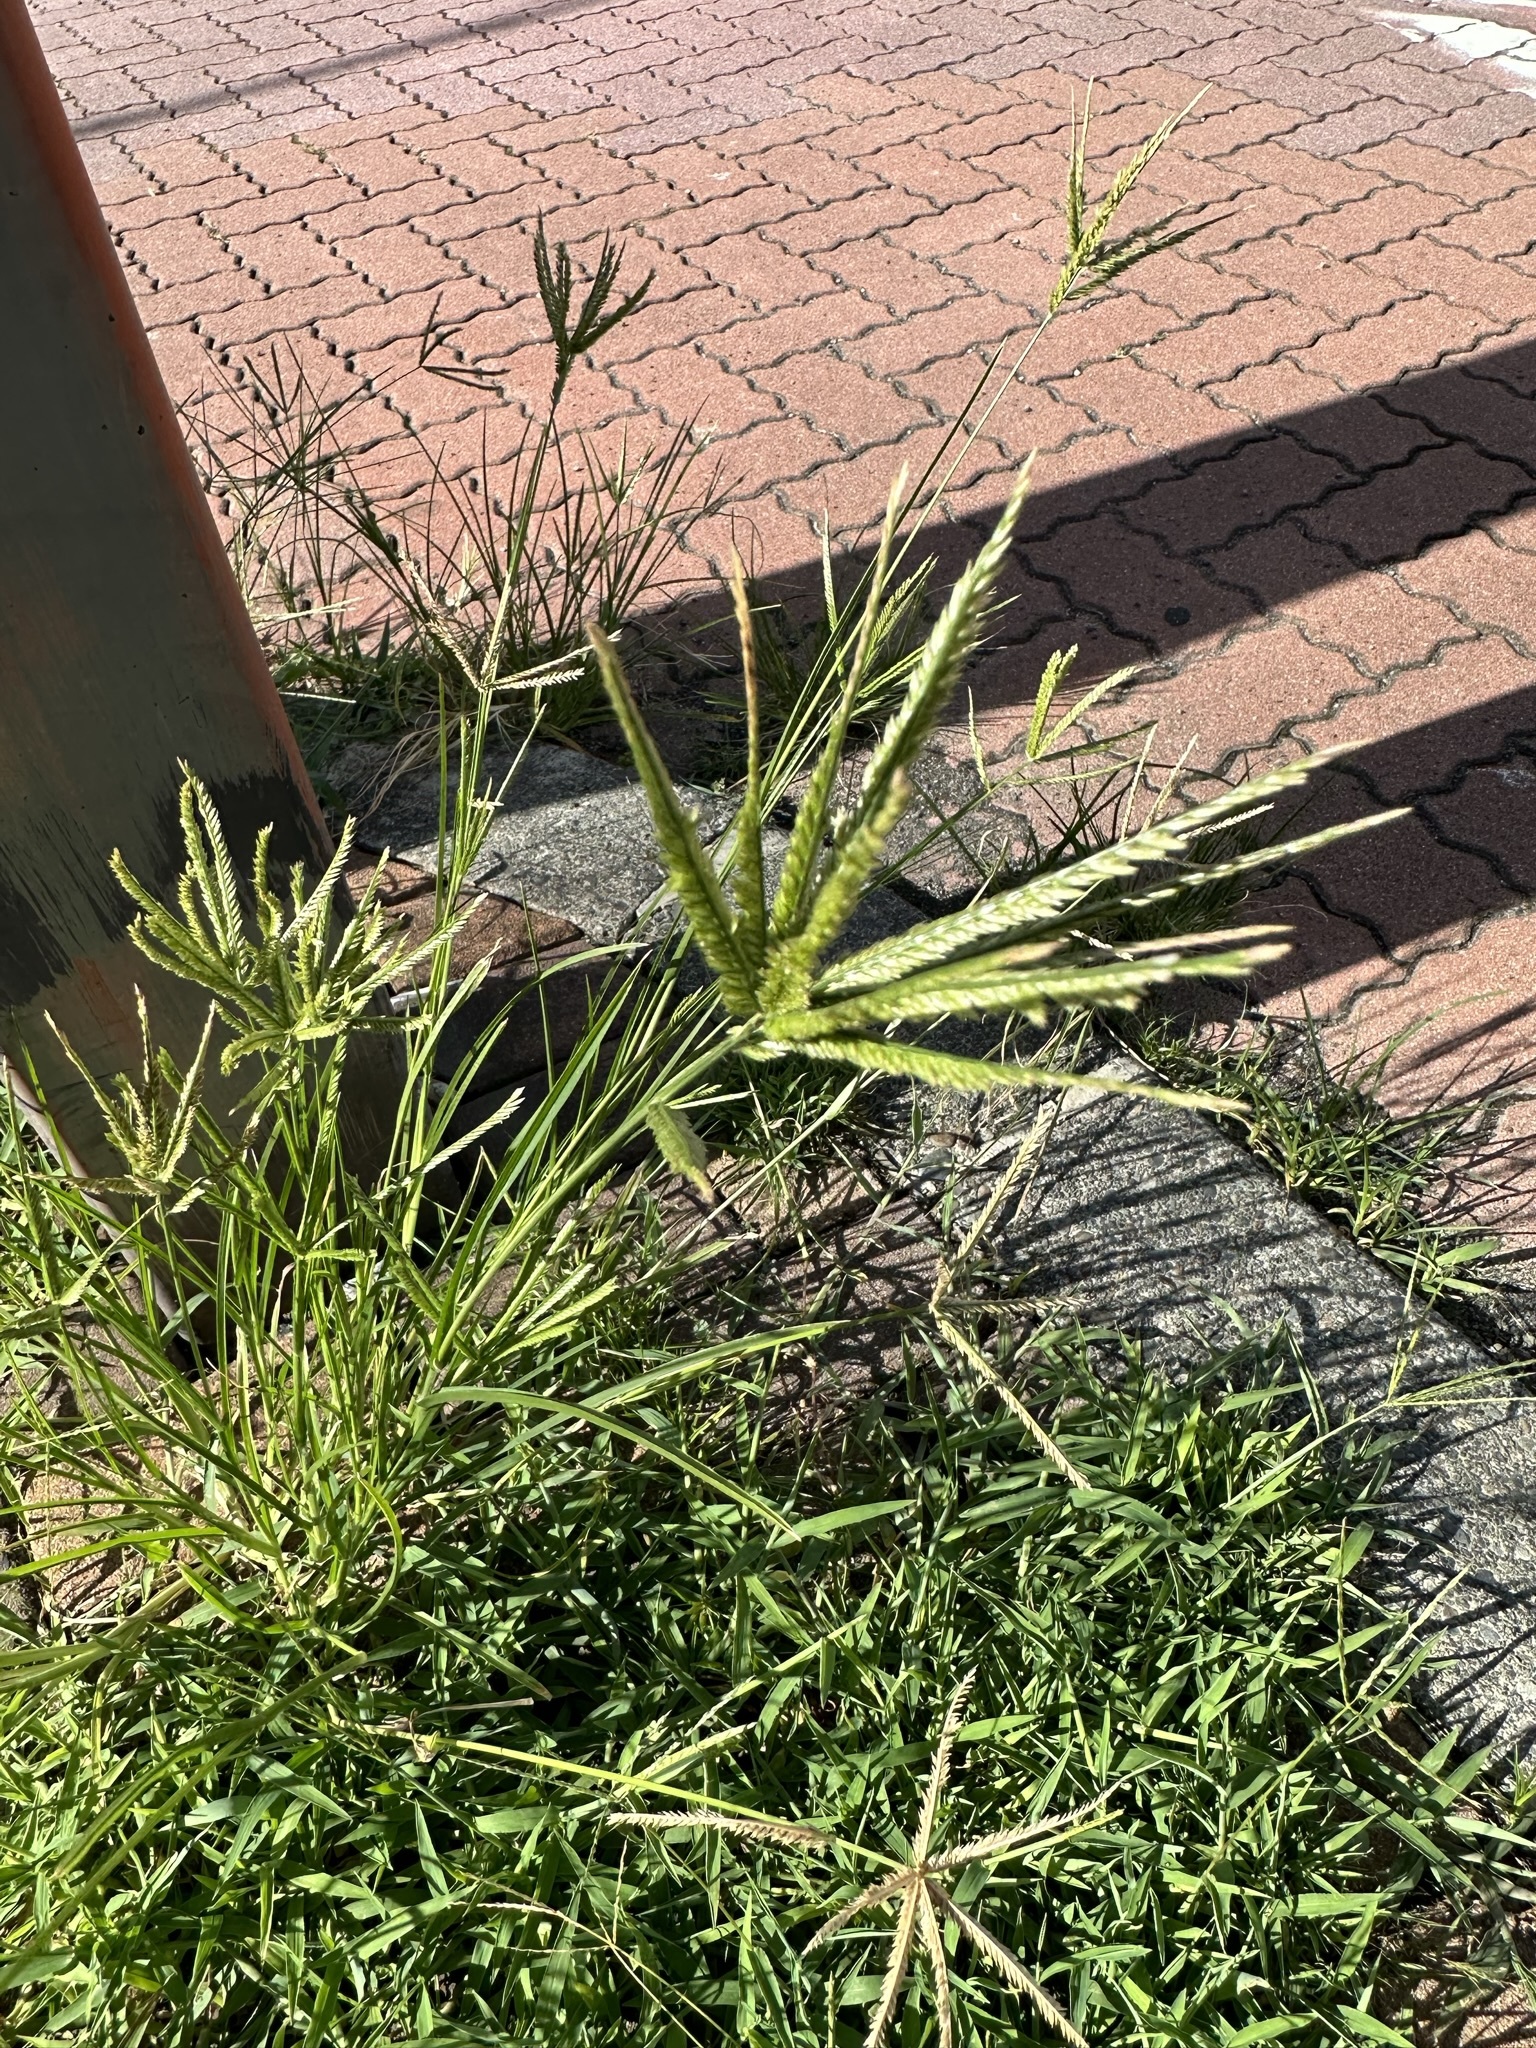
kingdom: Plantae
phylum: Tracheophyta
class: Liliopsida
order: Poales
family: Poaceae
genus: Eleusine
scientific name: Eleusine indica
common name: Yard-grass
